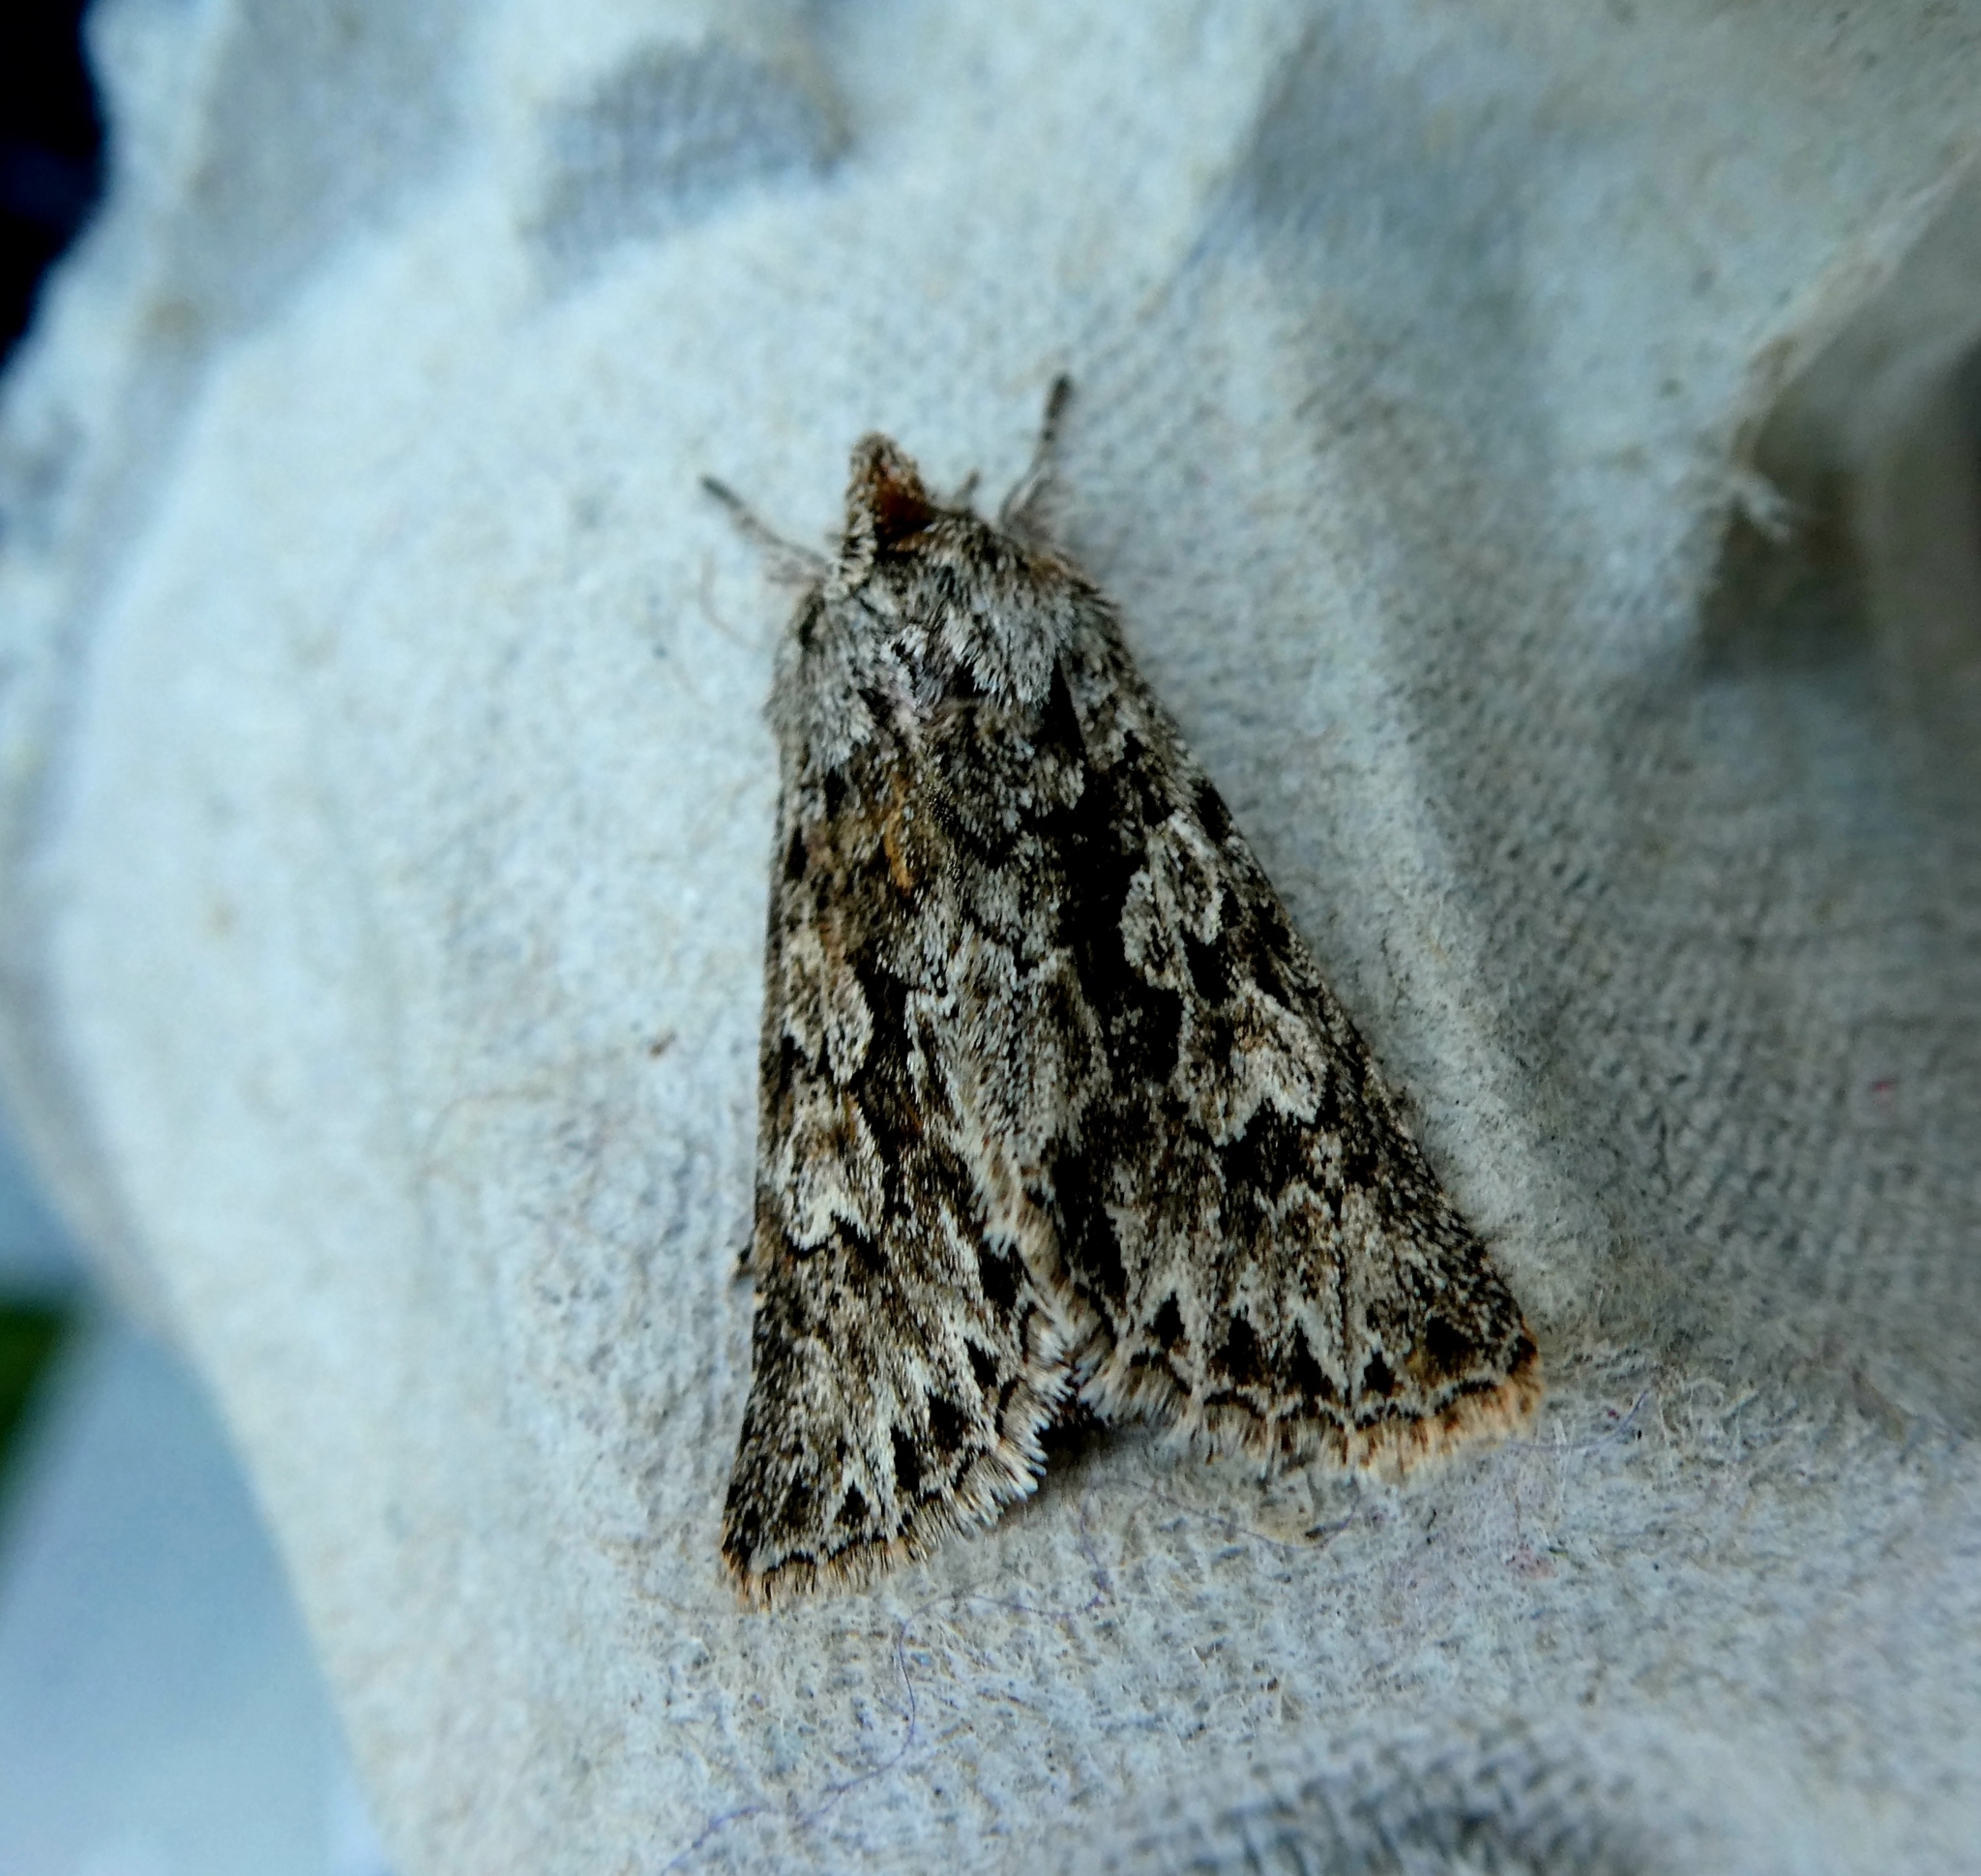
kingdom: Animalia
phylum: Arthropoda
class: Insecta
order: Lepidoptera
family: Noctuidae
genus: Xylocampa
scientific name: Xylocampa areola
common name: Early grey
